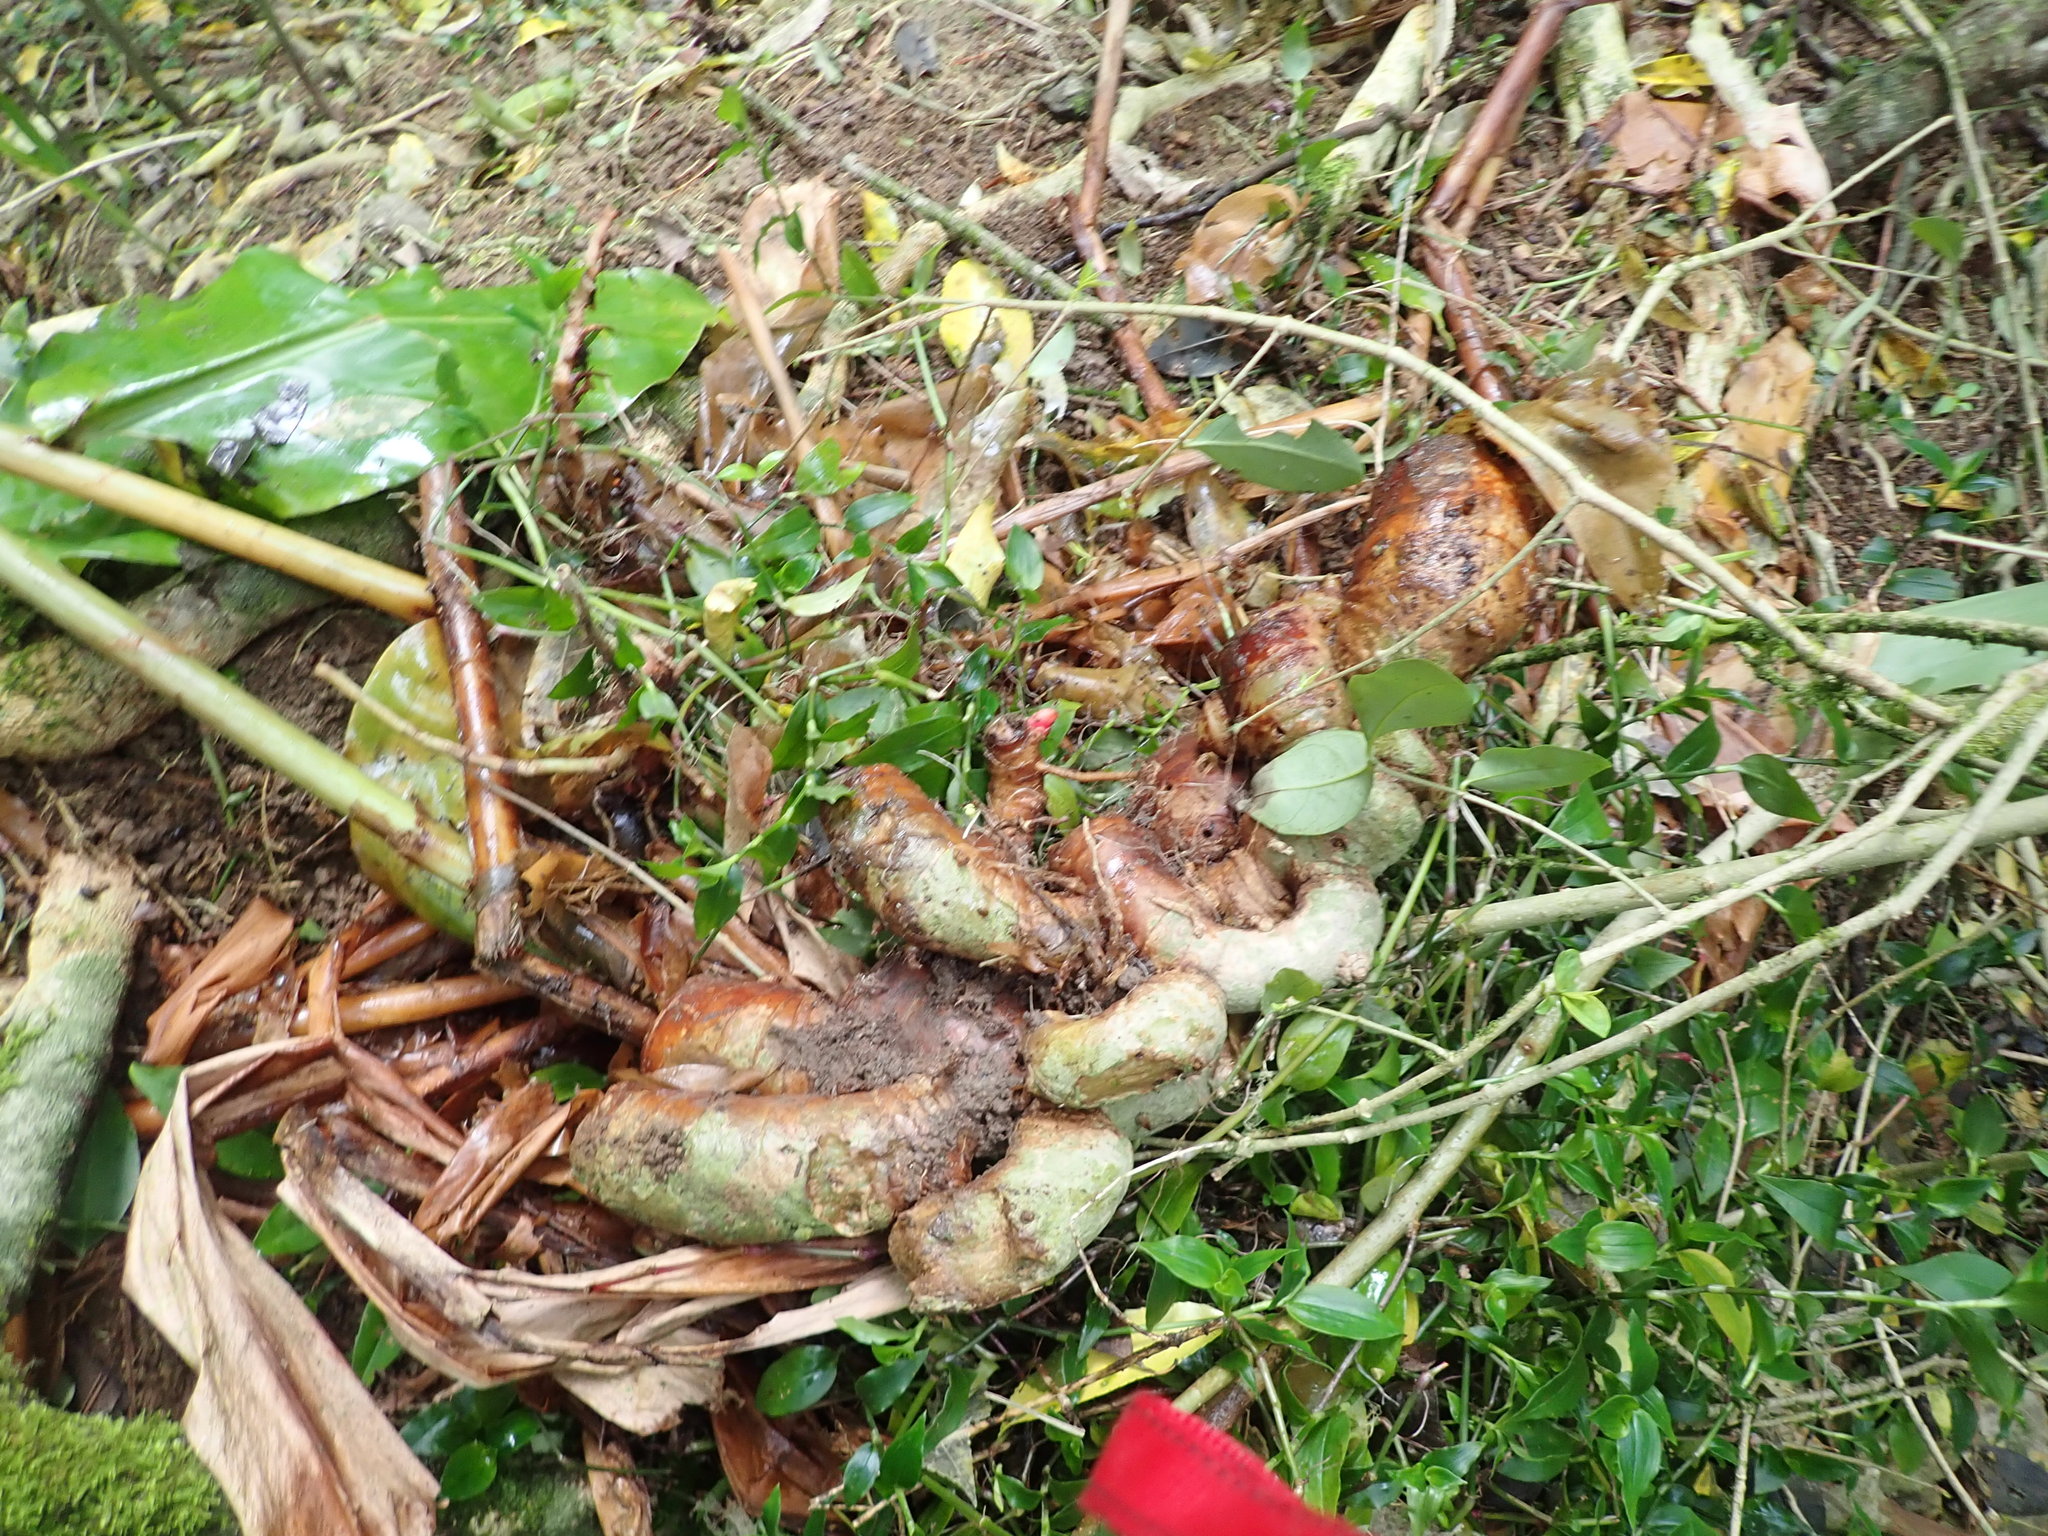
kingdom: Plantae
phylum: Tracheophyta
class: Liliopsida
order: Zingiberales
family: Zingiberaceae
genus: Hedychium
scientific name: Hedychium gardnerianum
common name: Himalayan ginger
